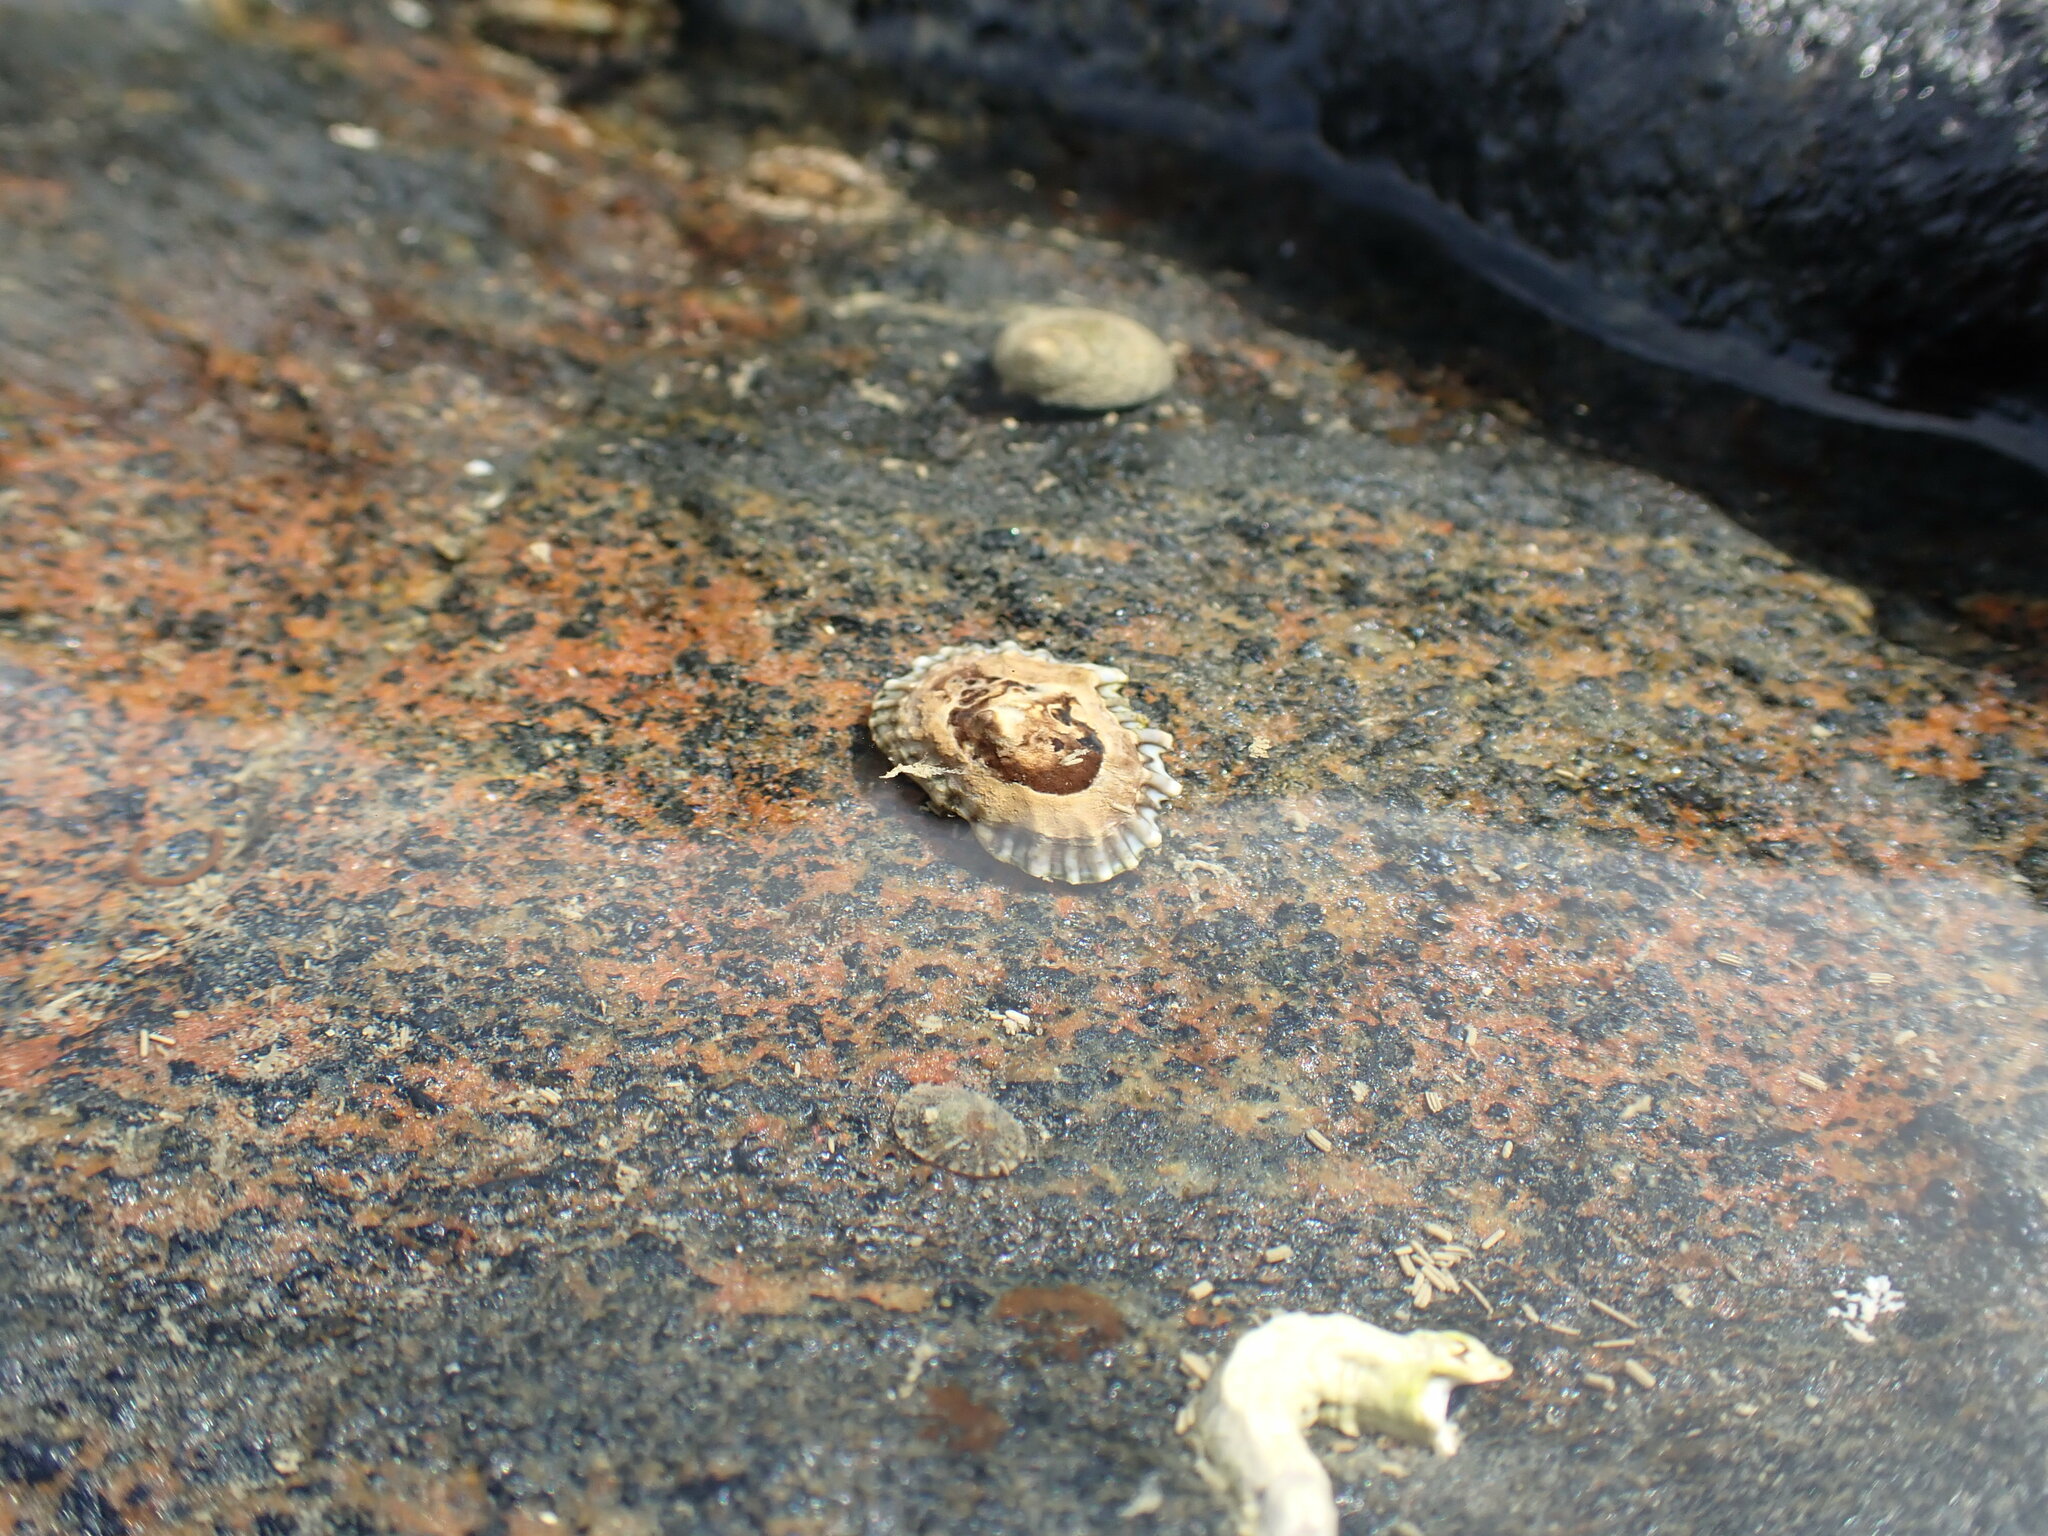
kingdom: Animalia
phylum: Mollusca
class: Gastropoda
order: Siphonariida
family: Siphonariidae
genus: Siphonaria
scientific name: Siphonaria australis
